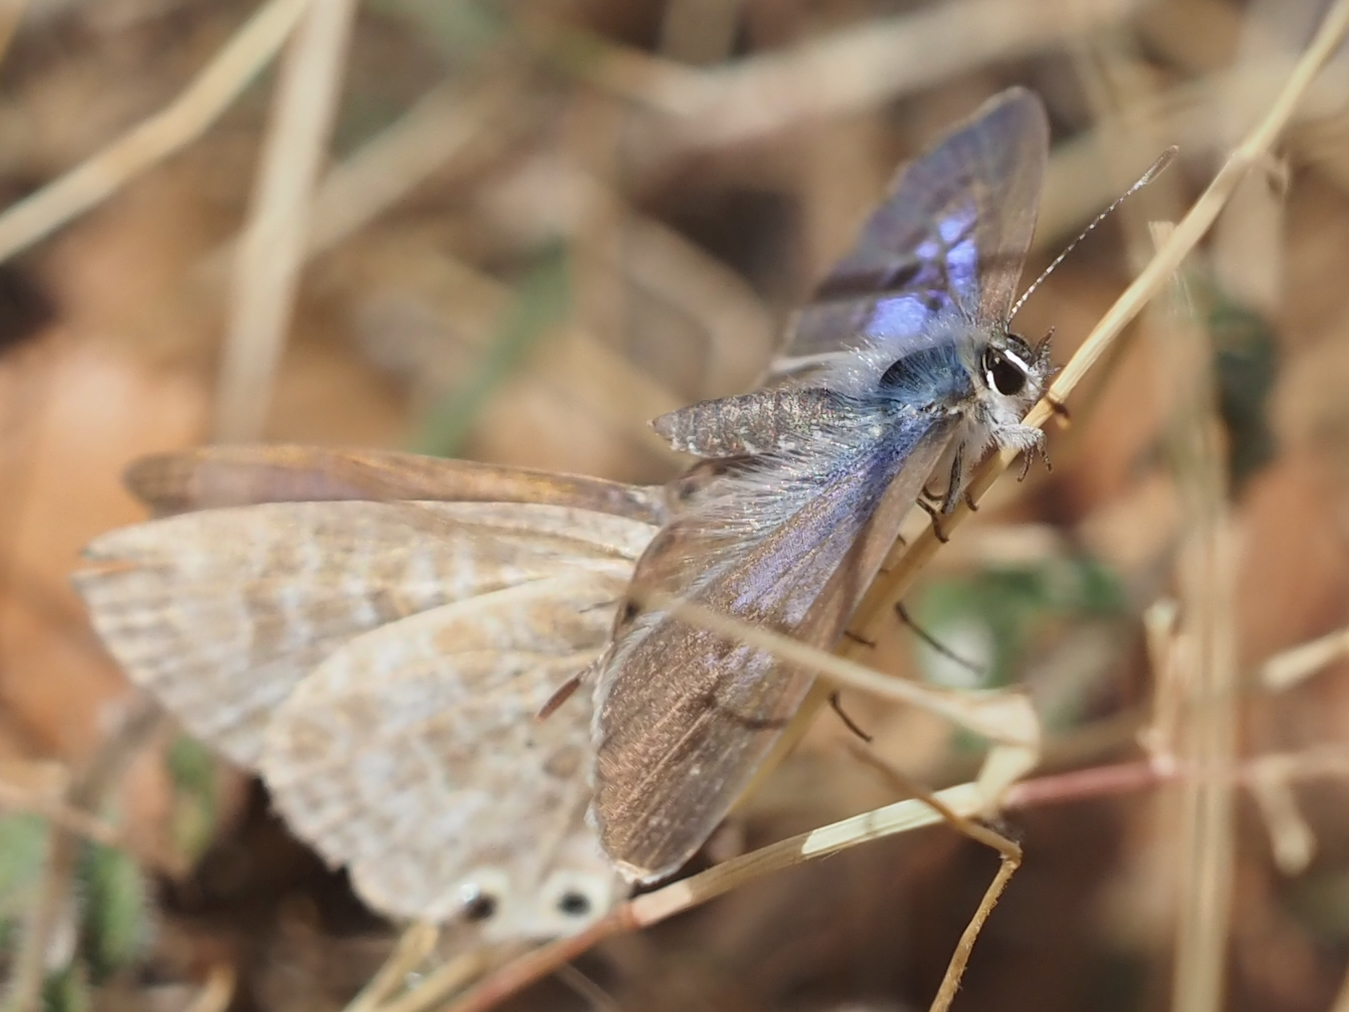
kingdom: Animalia
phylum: Arthropoda
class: Insecta
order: Lepidoptera
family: Lycaenidae
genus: Leptotes
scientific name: Leptotes pirithous
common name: Lang's short-tailed blue
